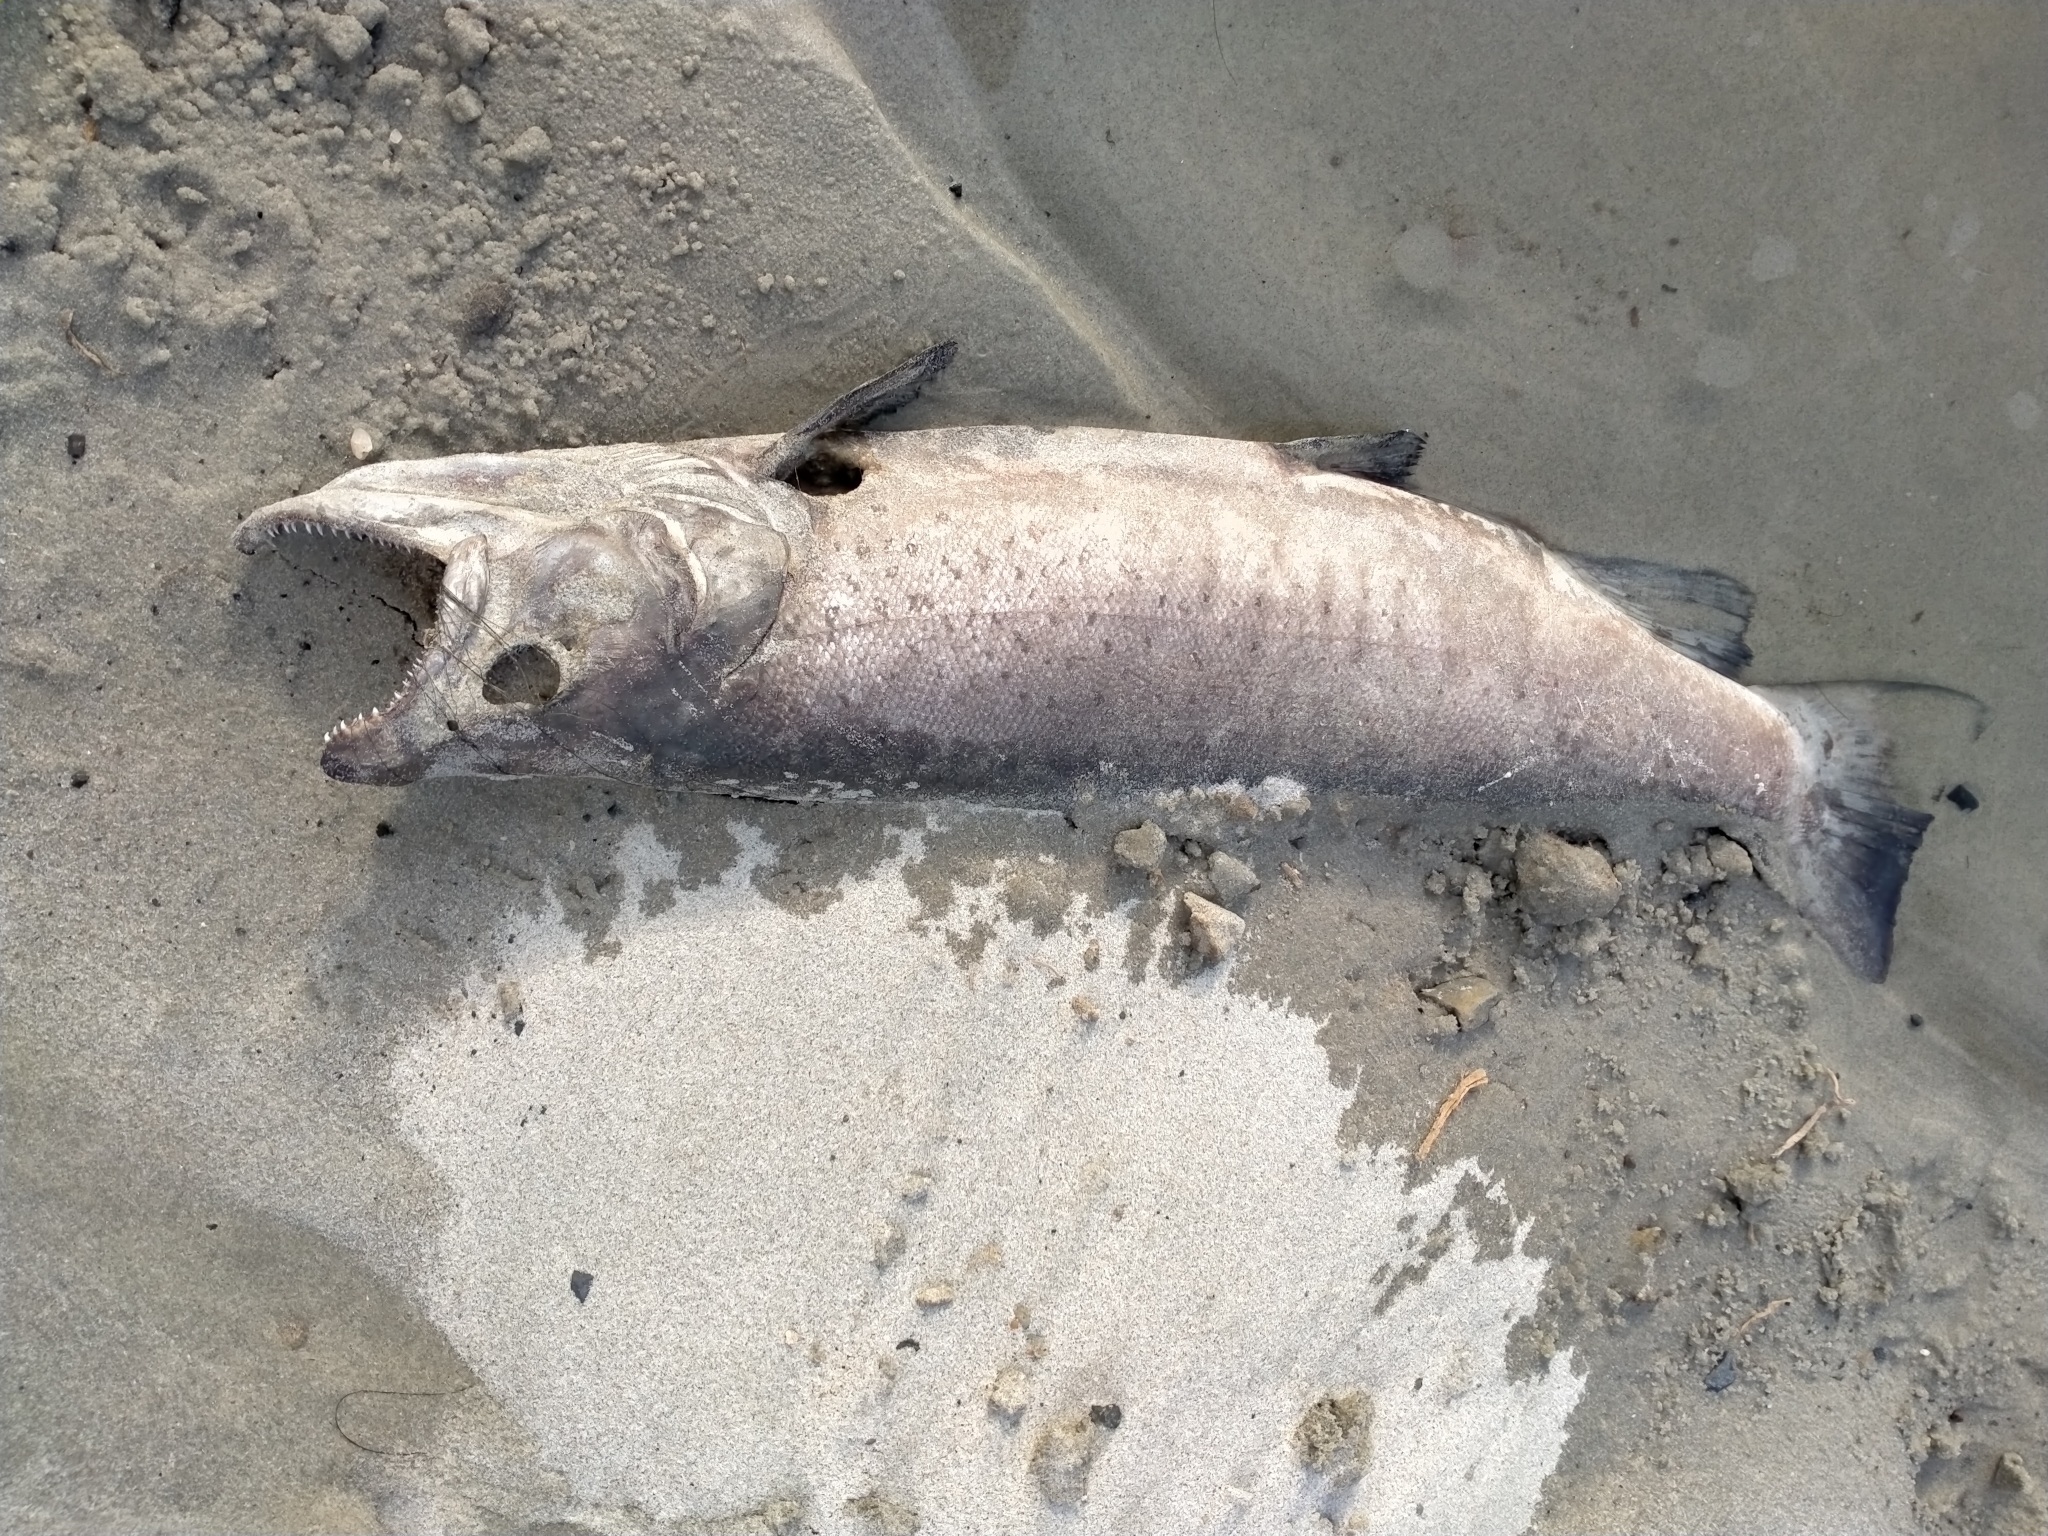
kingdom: Animalia
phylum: Chordata
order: Salmoniformes
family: Salmonidae
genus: Salmo
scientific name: Salmo trutta
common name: Brown trout
